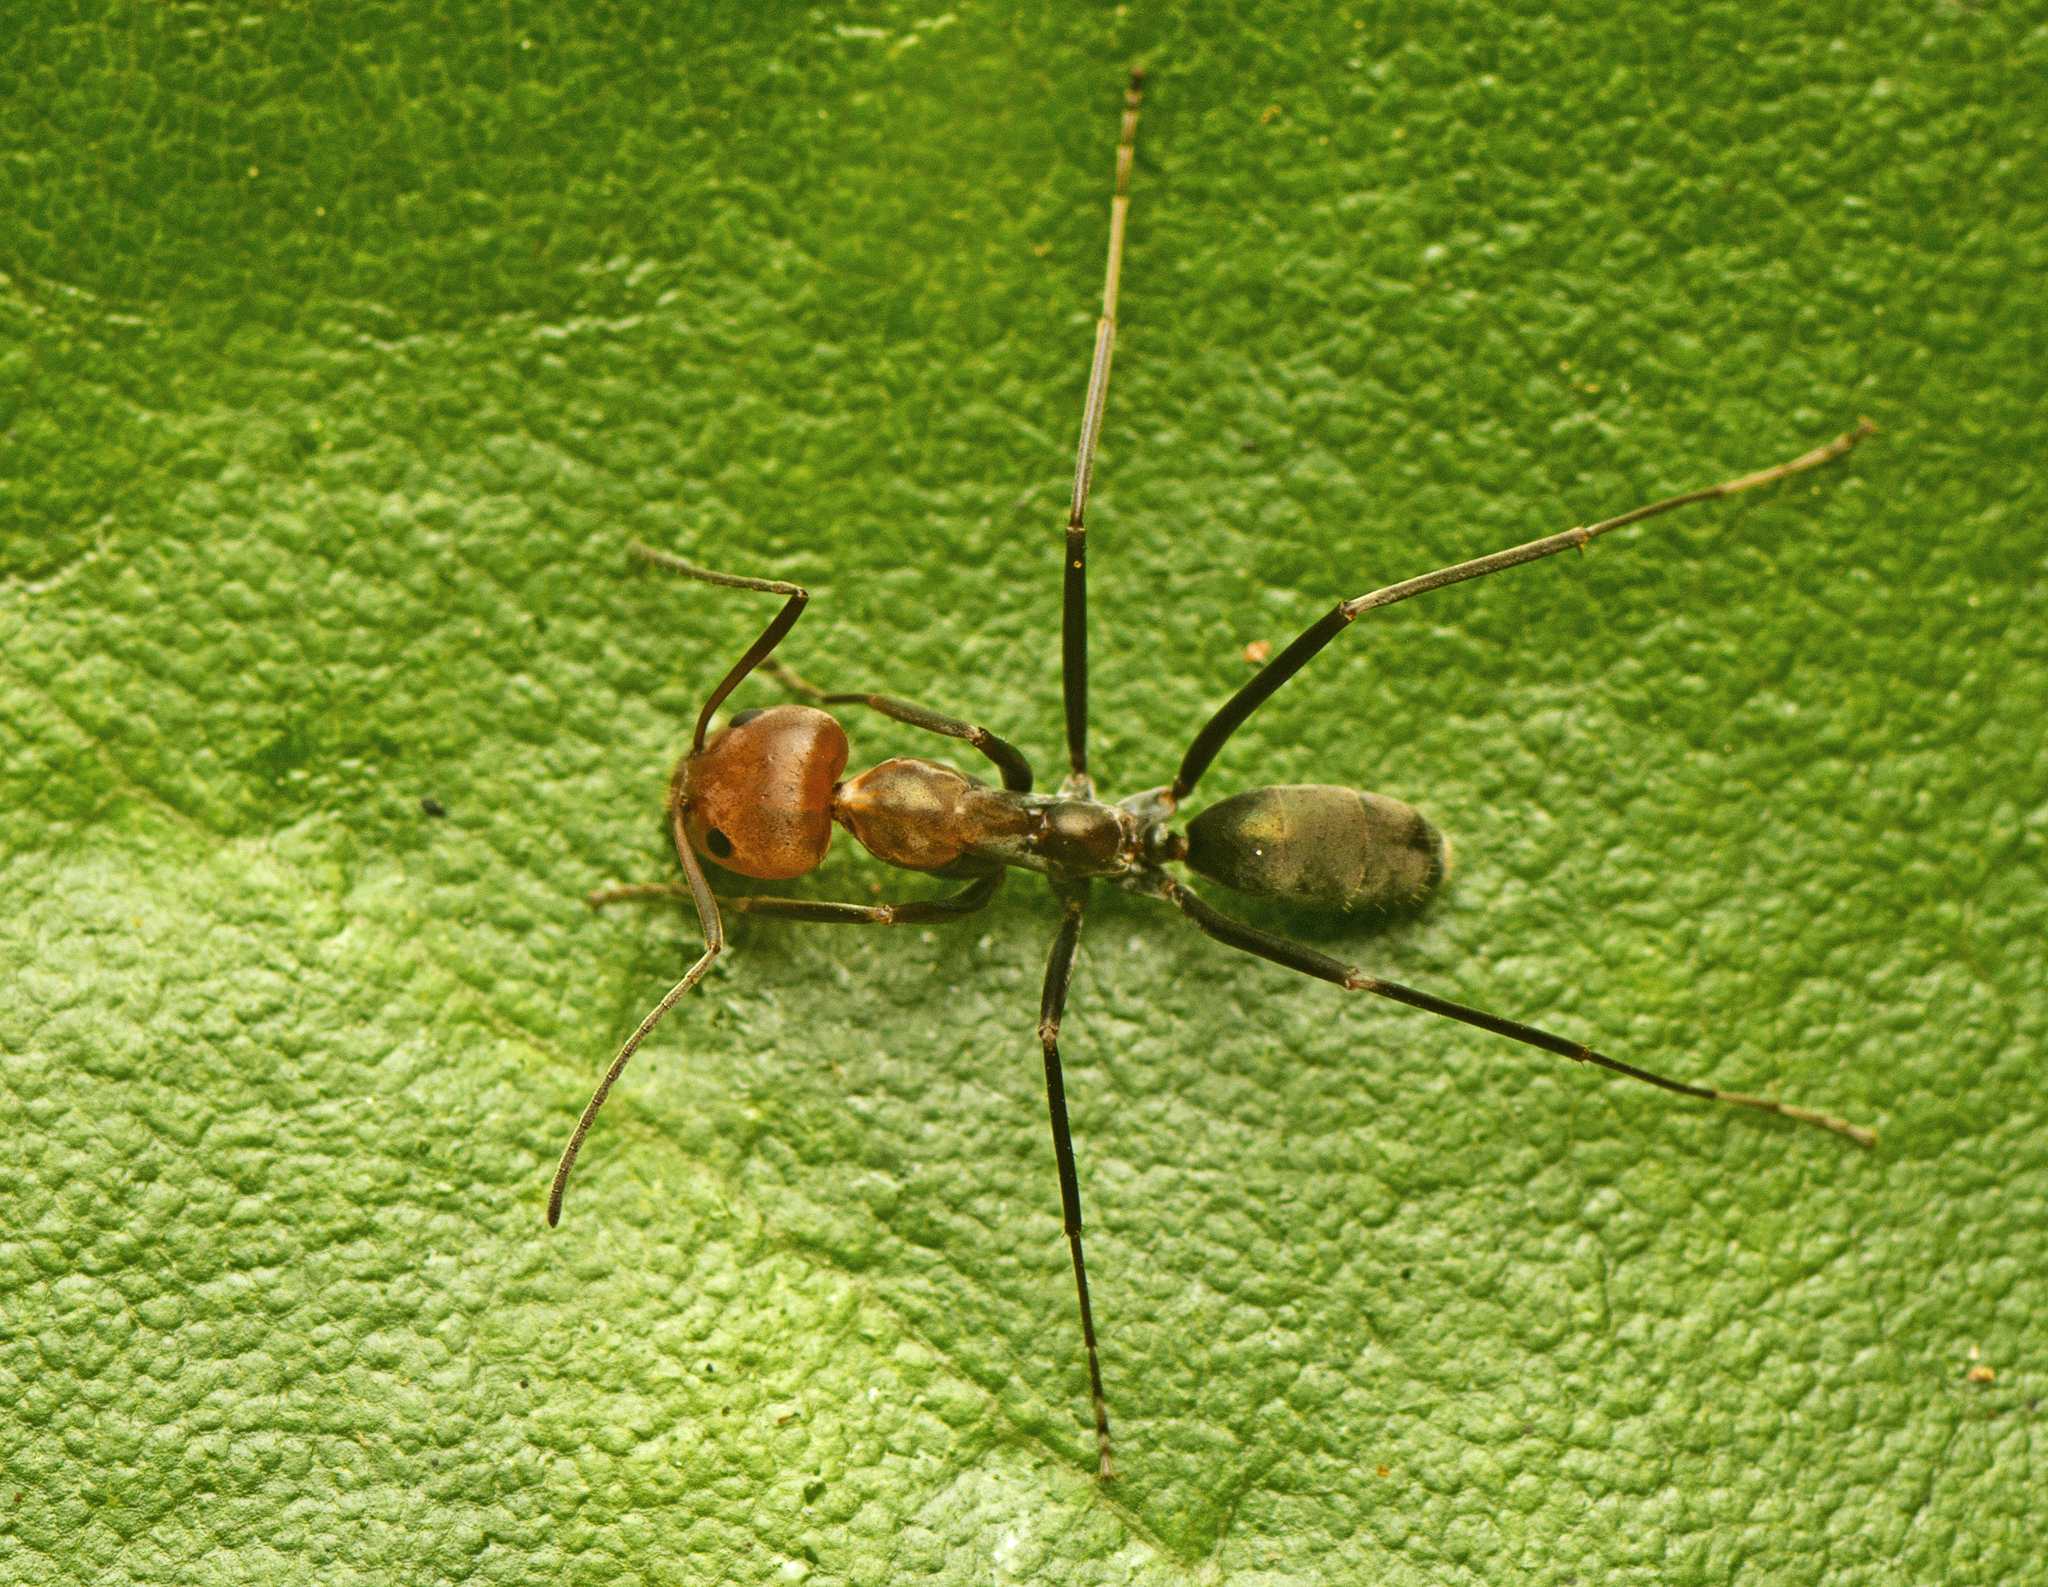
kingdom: Animalia
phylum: Arthropoda
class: Insecta
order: Hymenoptera
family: Formicidae
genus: Iridomyrmex
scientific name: Iridomyrmex
